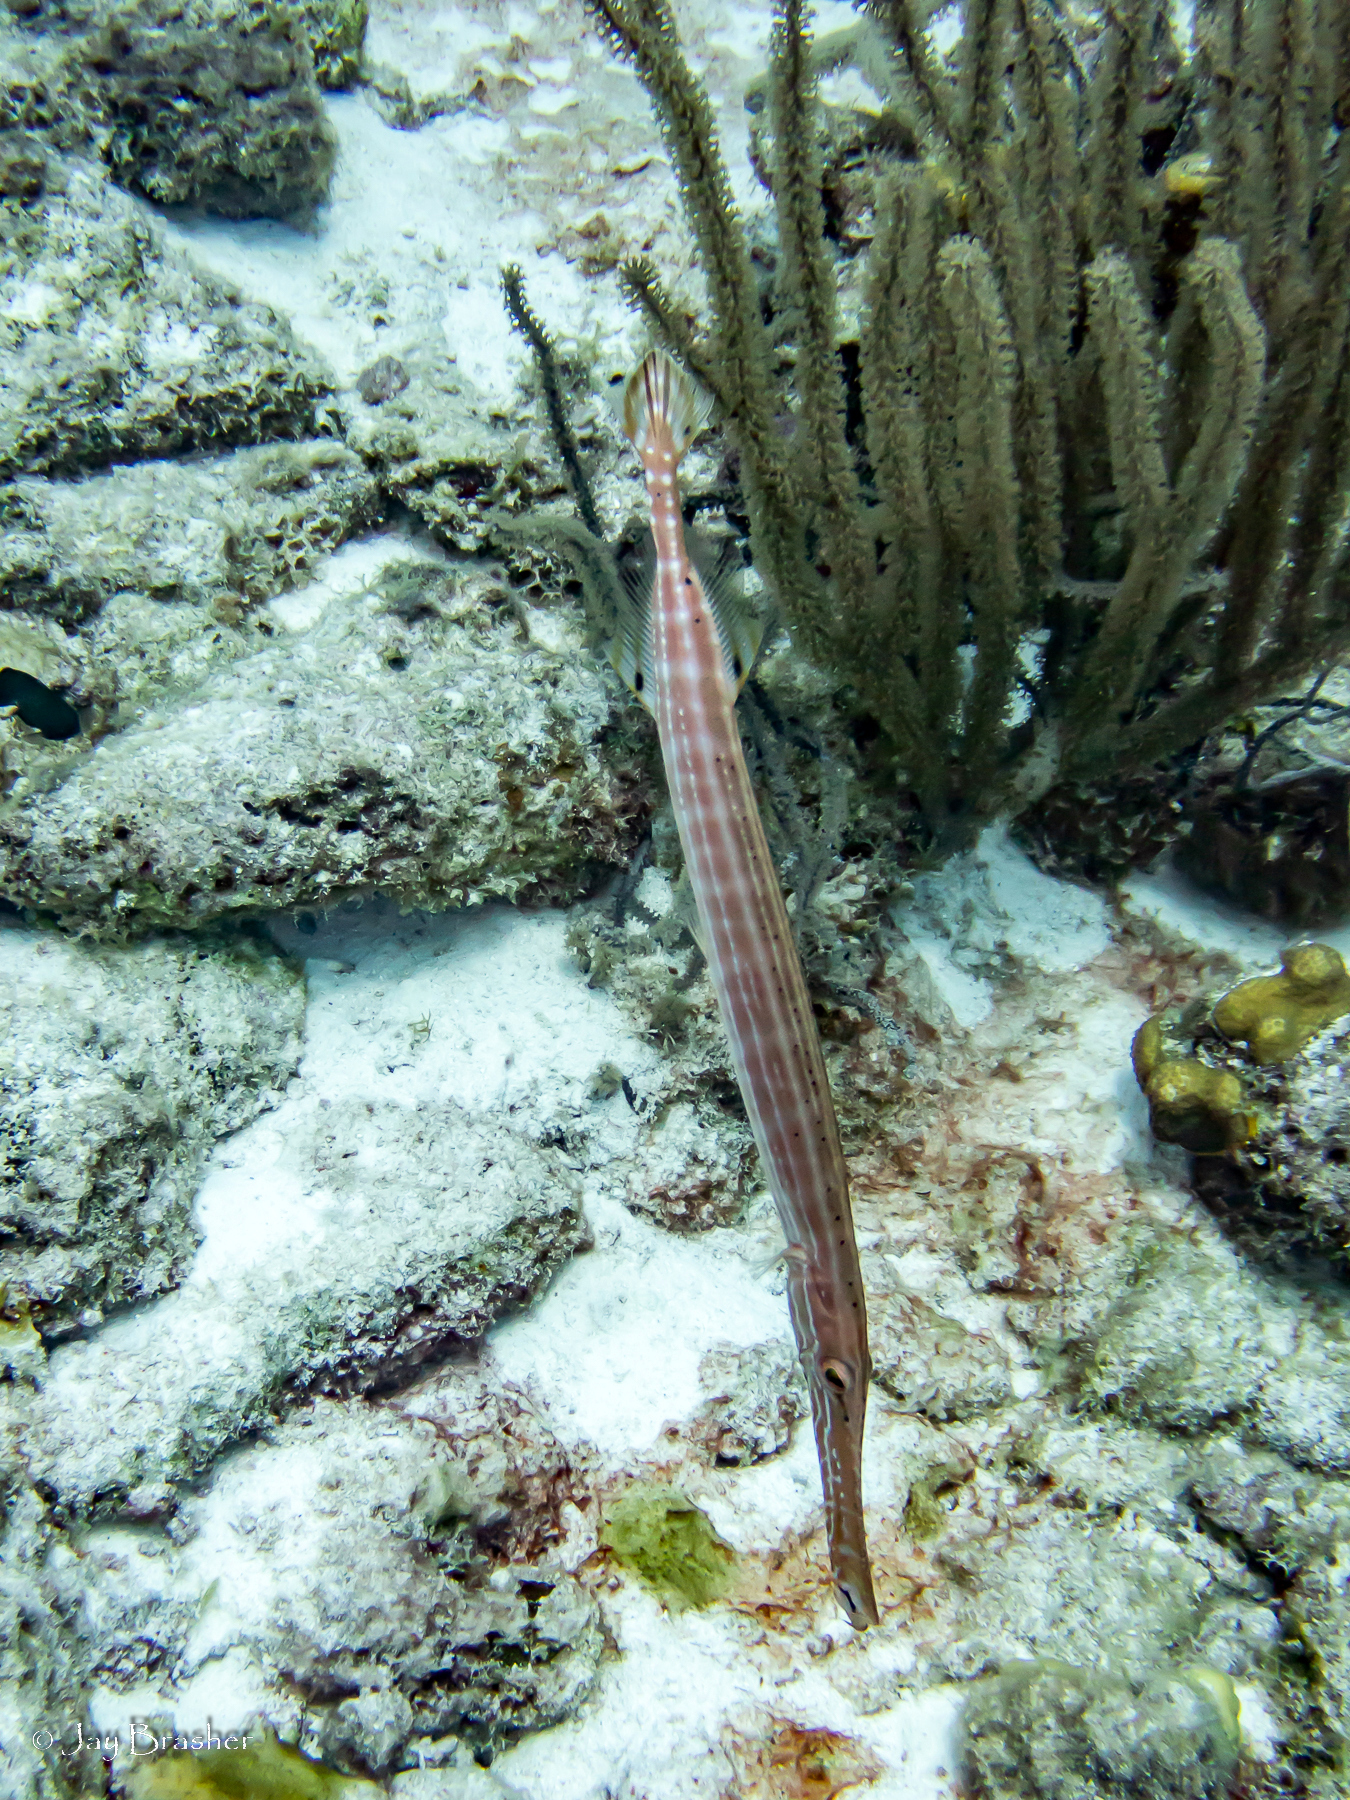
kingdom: Animalia
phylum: Chordata
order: Syngnathiformes
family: Aulostomidae
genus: Aulostomus
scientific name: Aulostomus maculatus
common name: West atlantic trumpetfish
